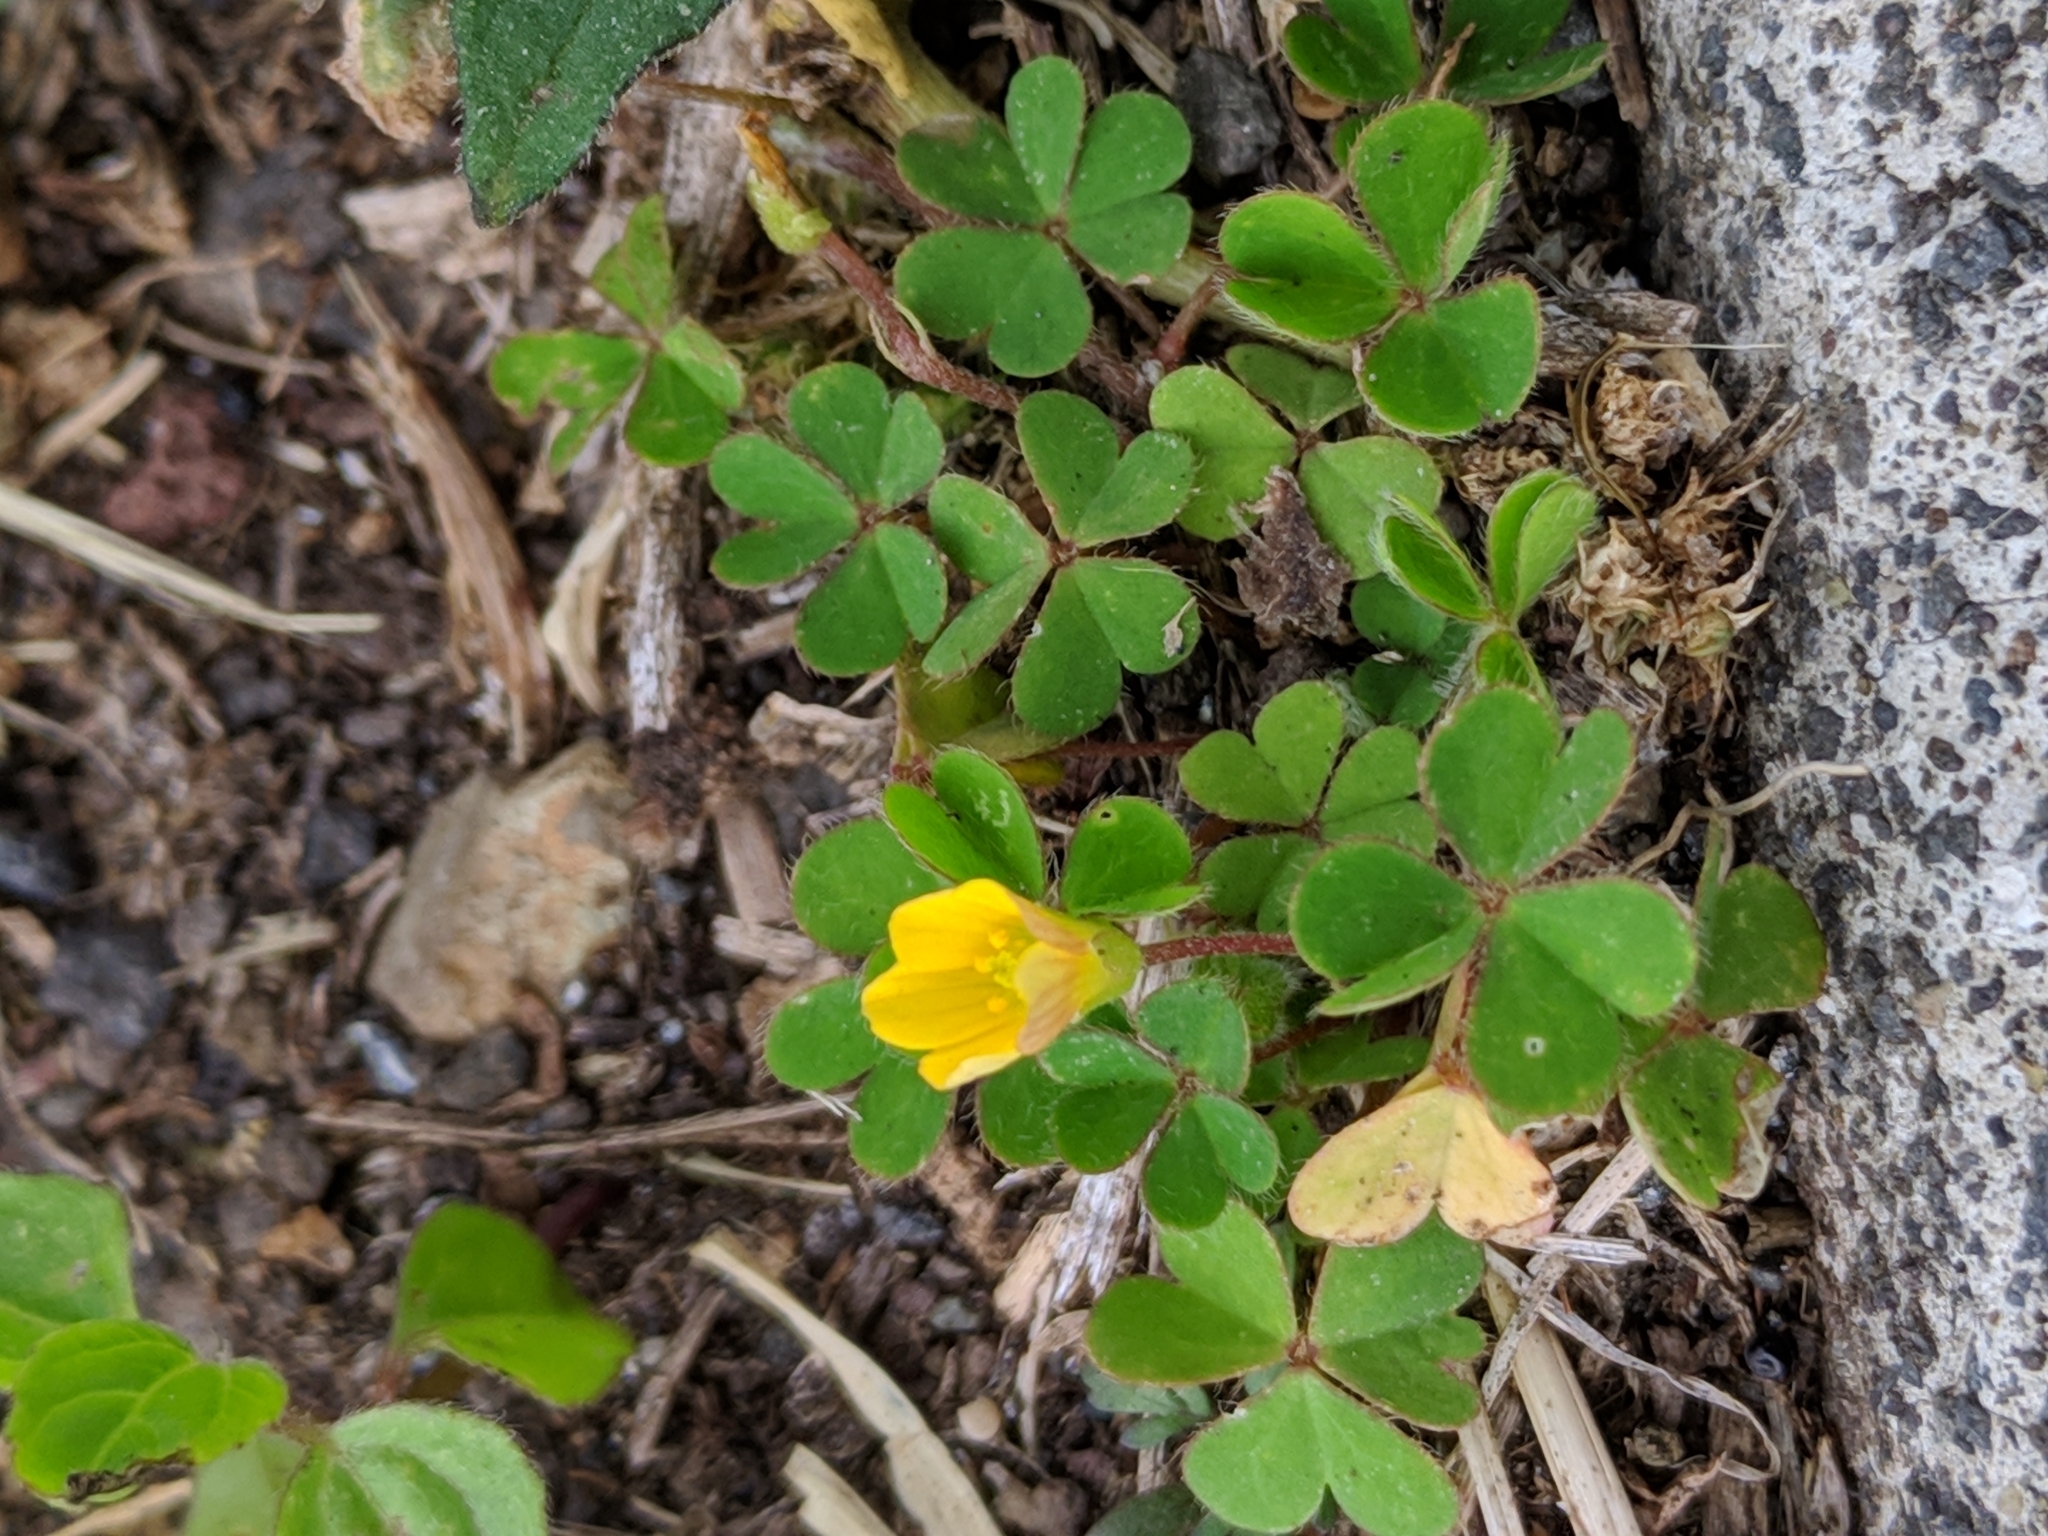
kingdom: Plantae
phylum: Tracheophyta
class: Magnoliopsida
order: Oxalidales
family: Oxalidaceae
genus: Oxalis
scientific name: Oxalis corniculata
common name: Procumbent yellow-sorrel
